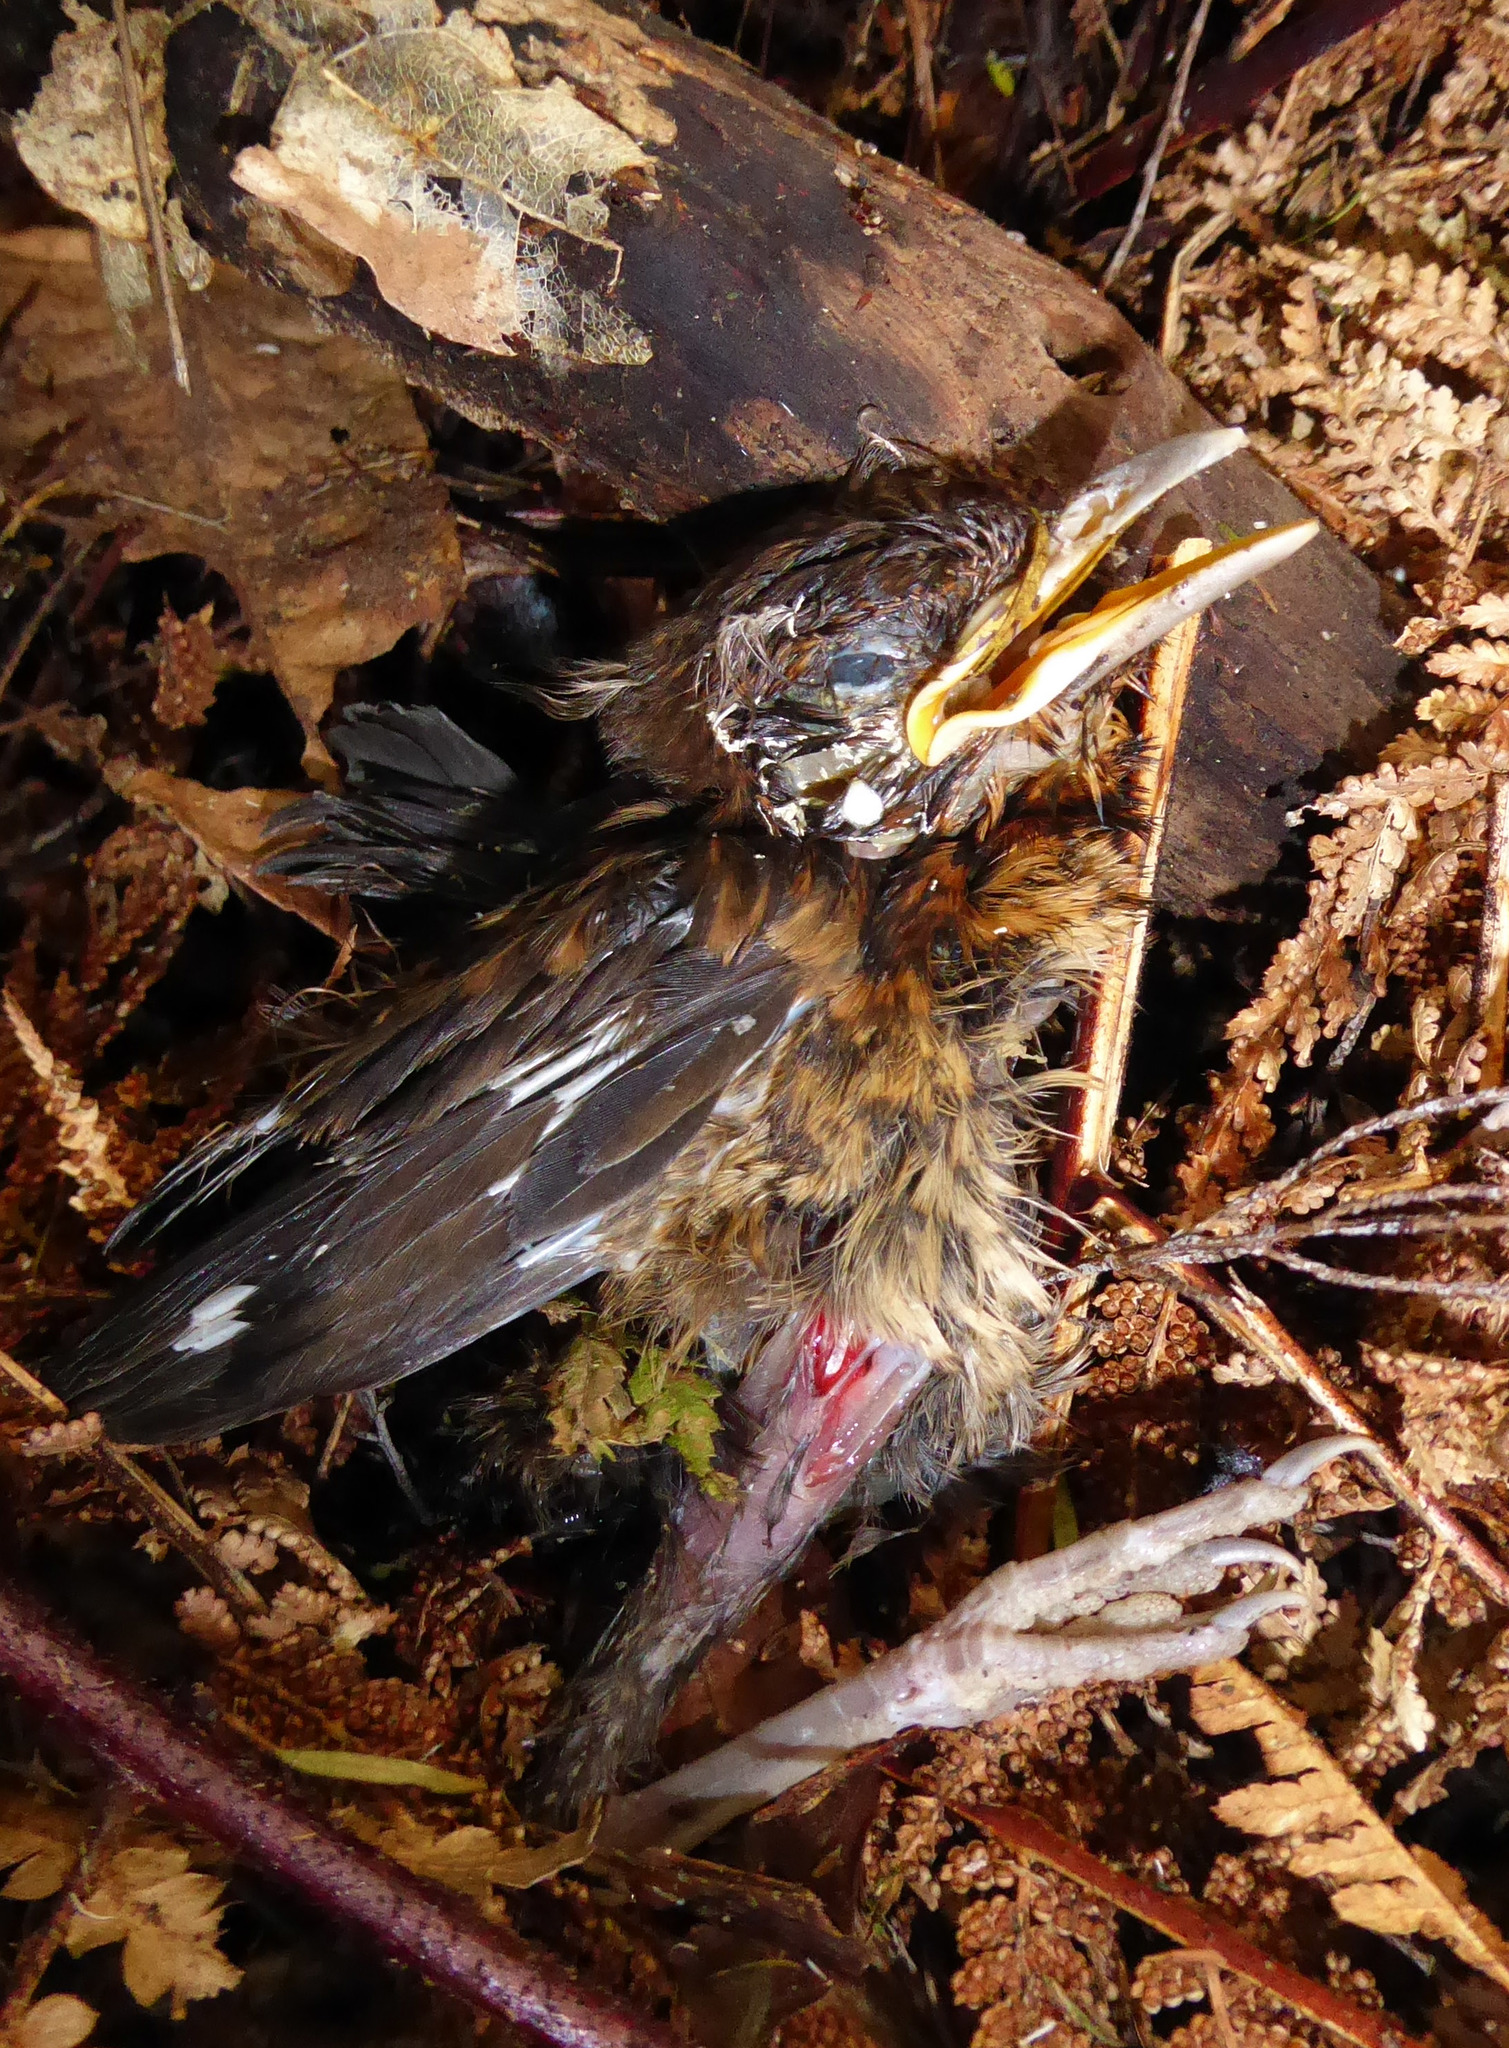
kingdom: Animalia
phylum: Chordata
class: Aves
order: Passeriformes
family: Turdidae
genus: Turdus
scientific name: Turdus merula
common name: Common blackbird
